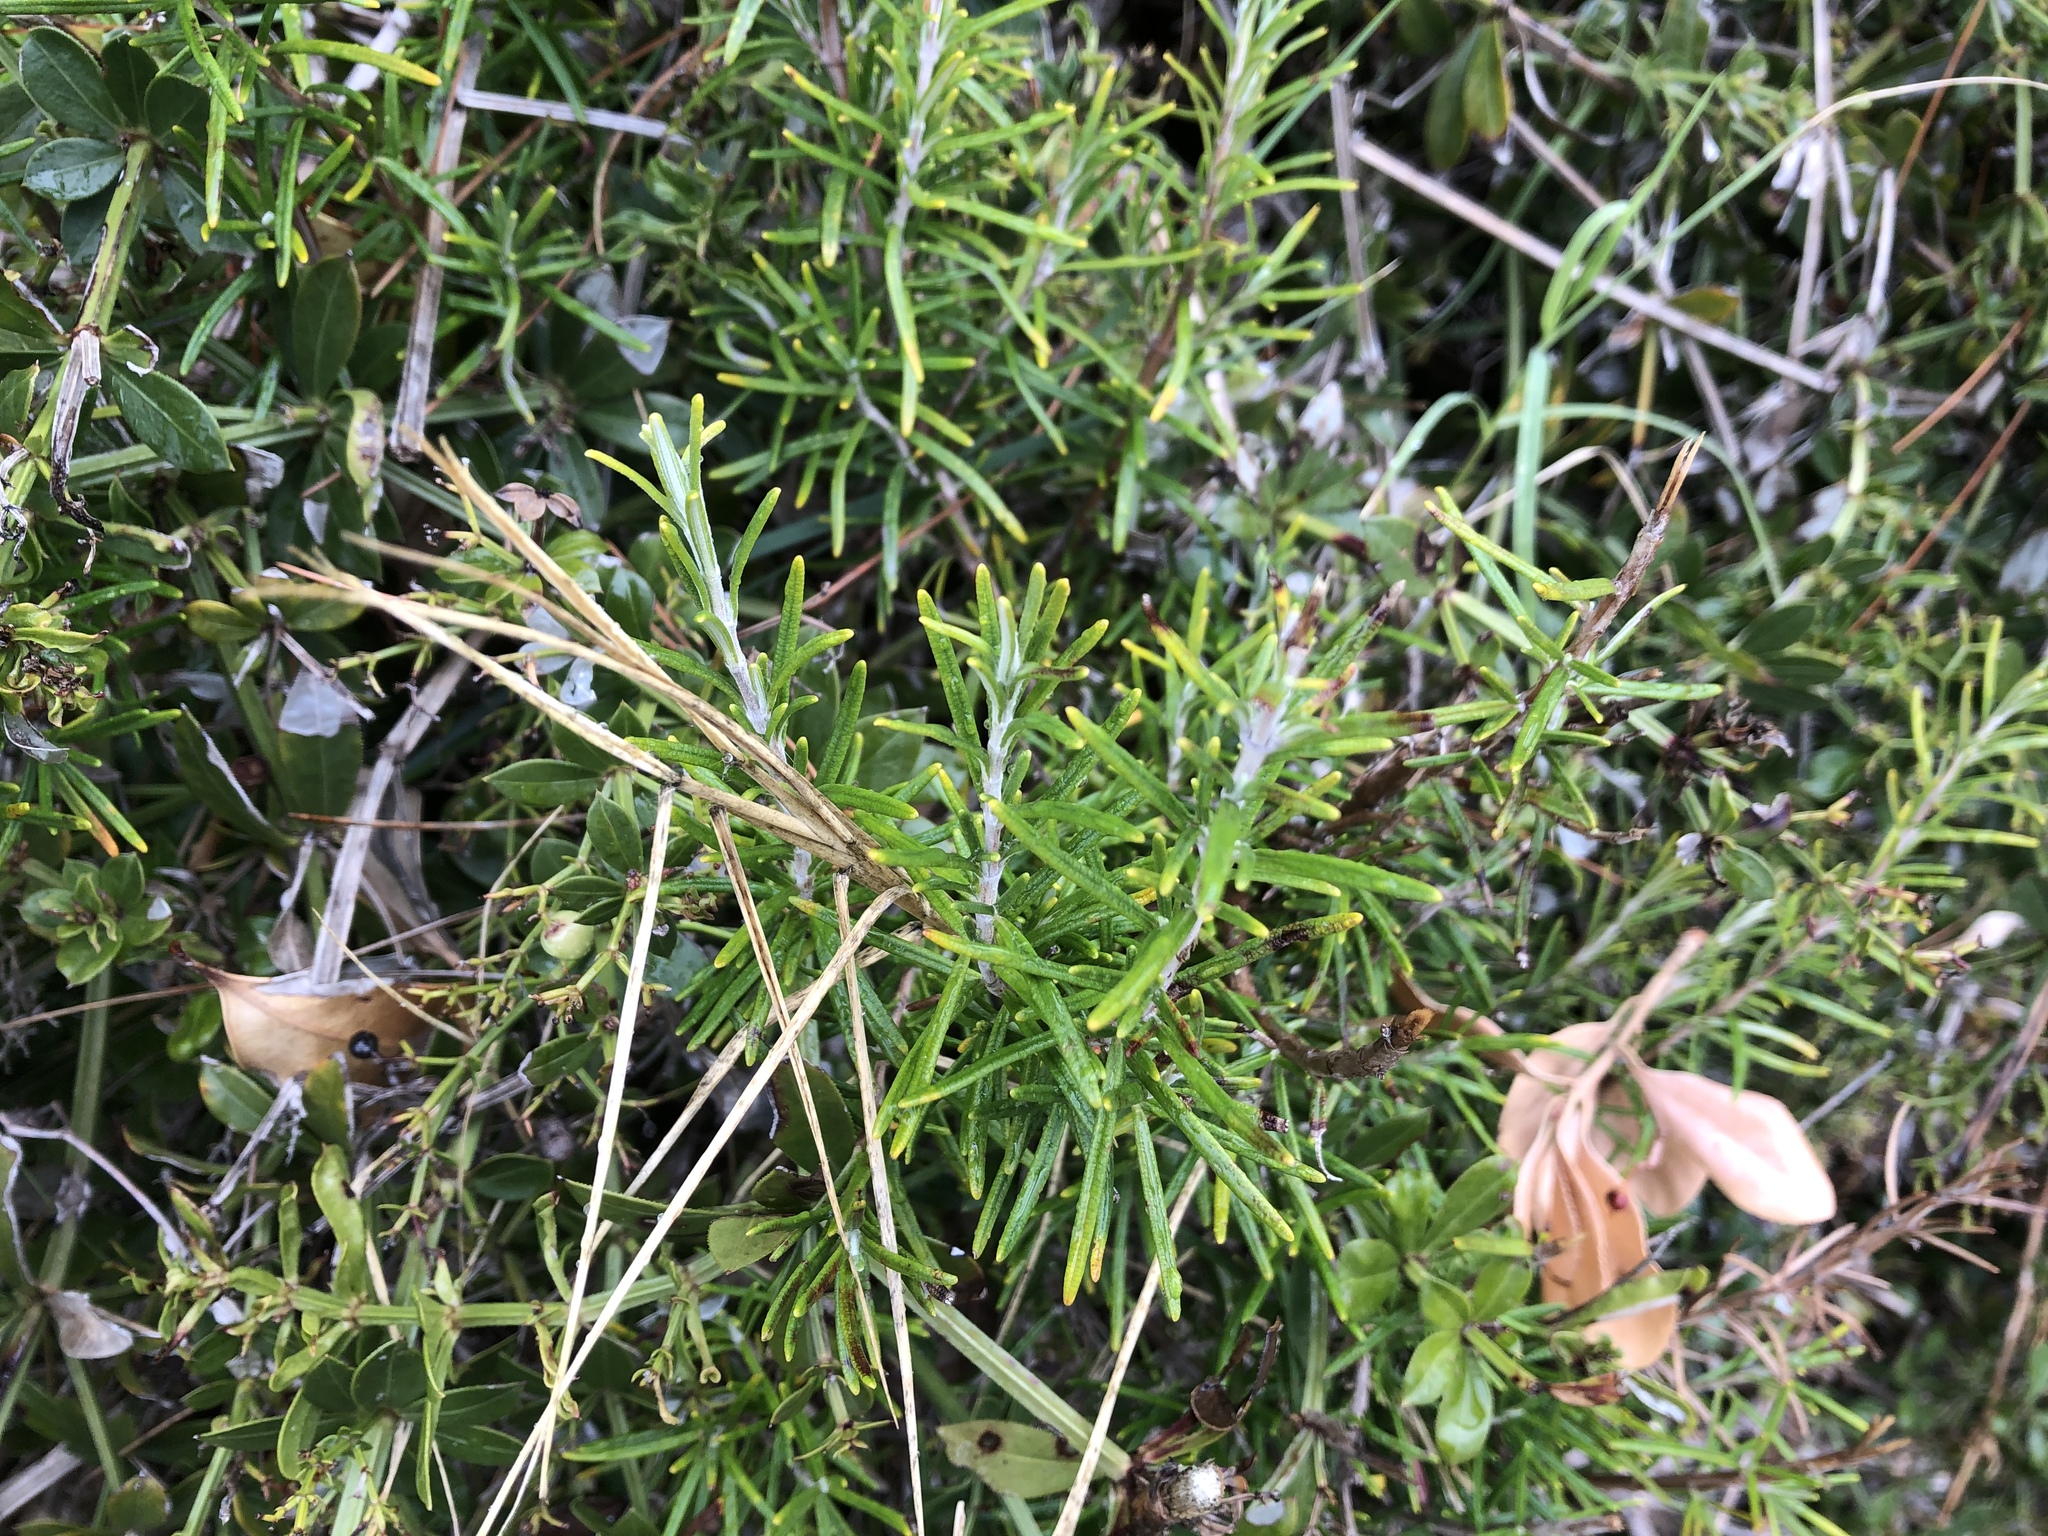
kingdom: Plantae
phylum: Tracheophyta
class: Magnoliopsida
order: Lamiales
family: Lamiaceae
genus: Salvia
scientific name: Salvia rosmarinus
